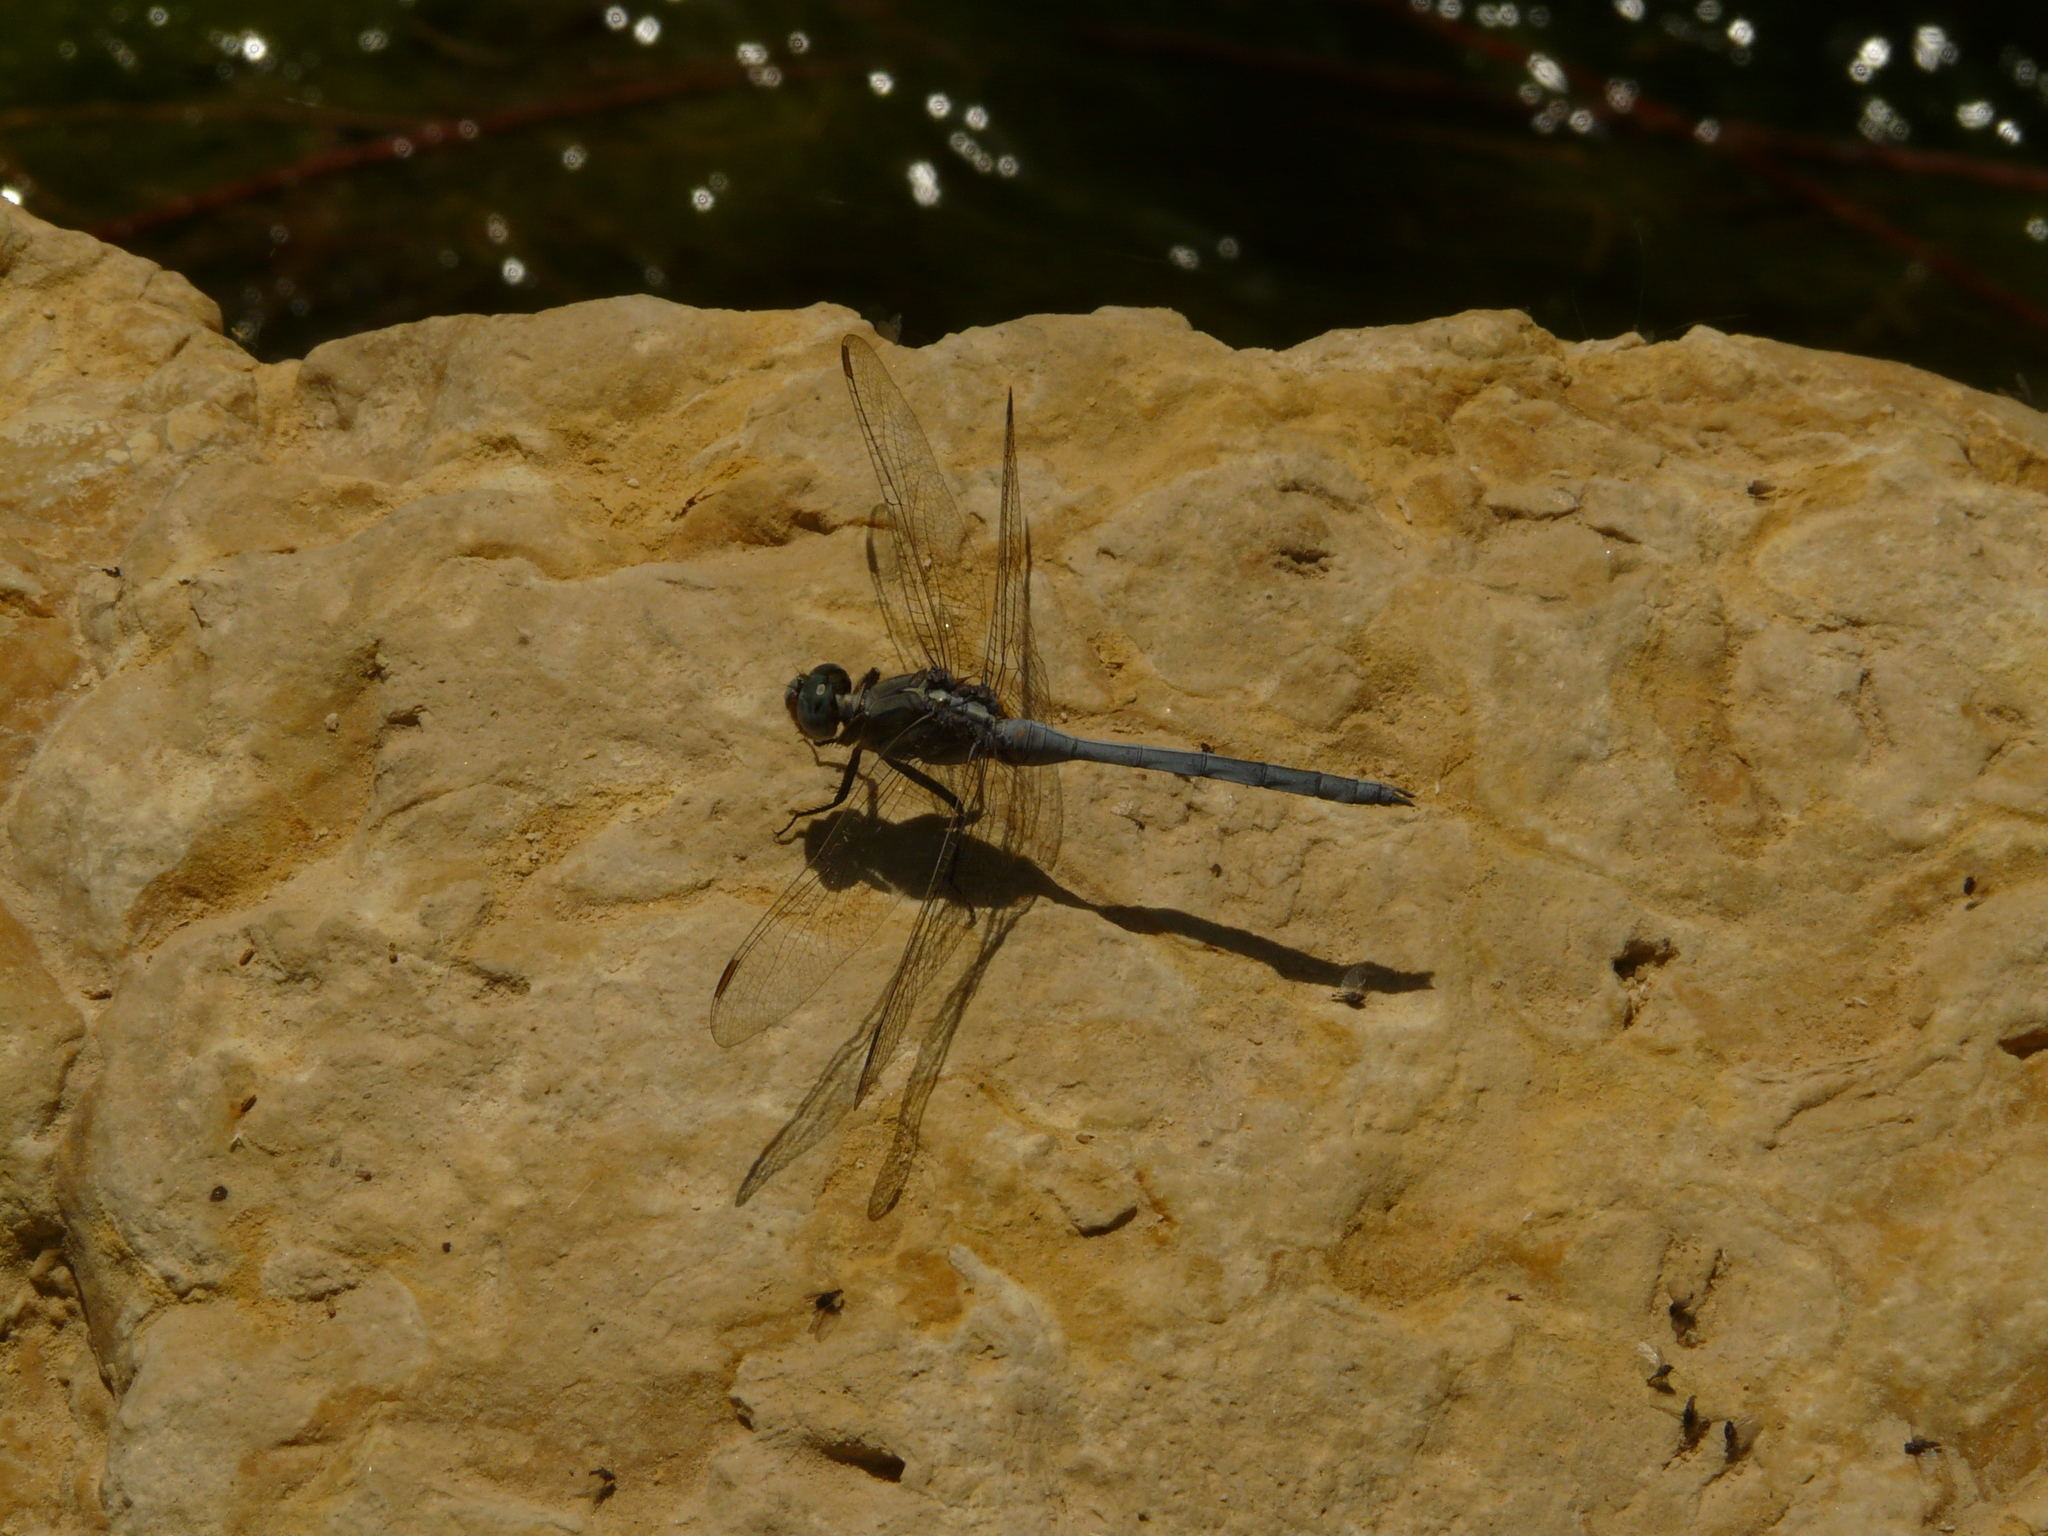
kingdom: Animalia
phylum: Arthropoda
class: Insecta
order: Odonata
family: Libellulidae
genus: Orthetrum
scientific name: Orthetrum chrysostigma
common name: Epaulet skimmer
